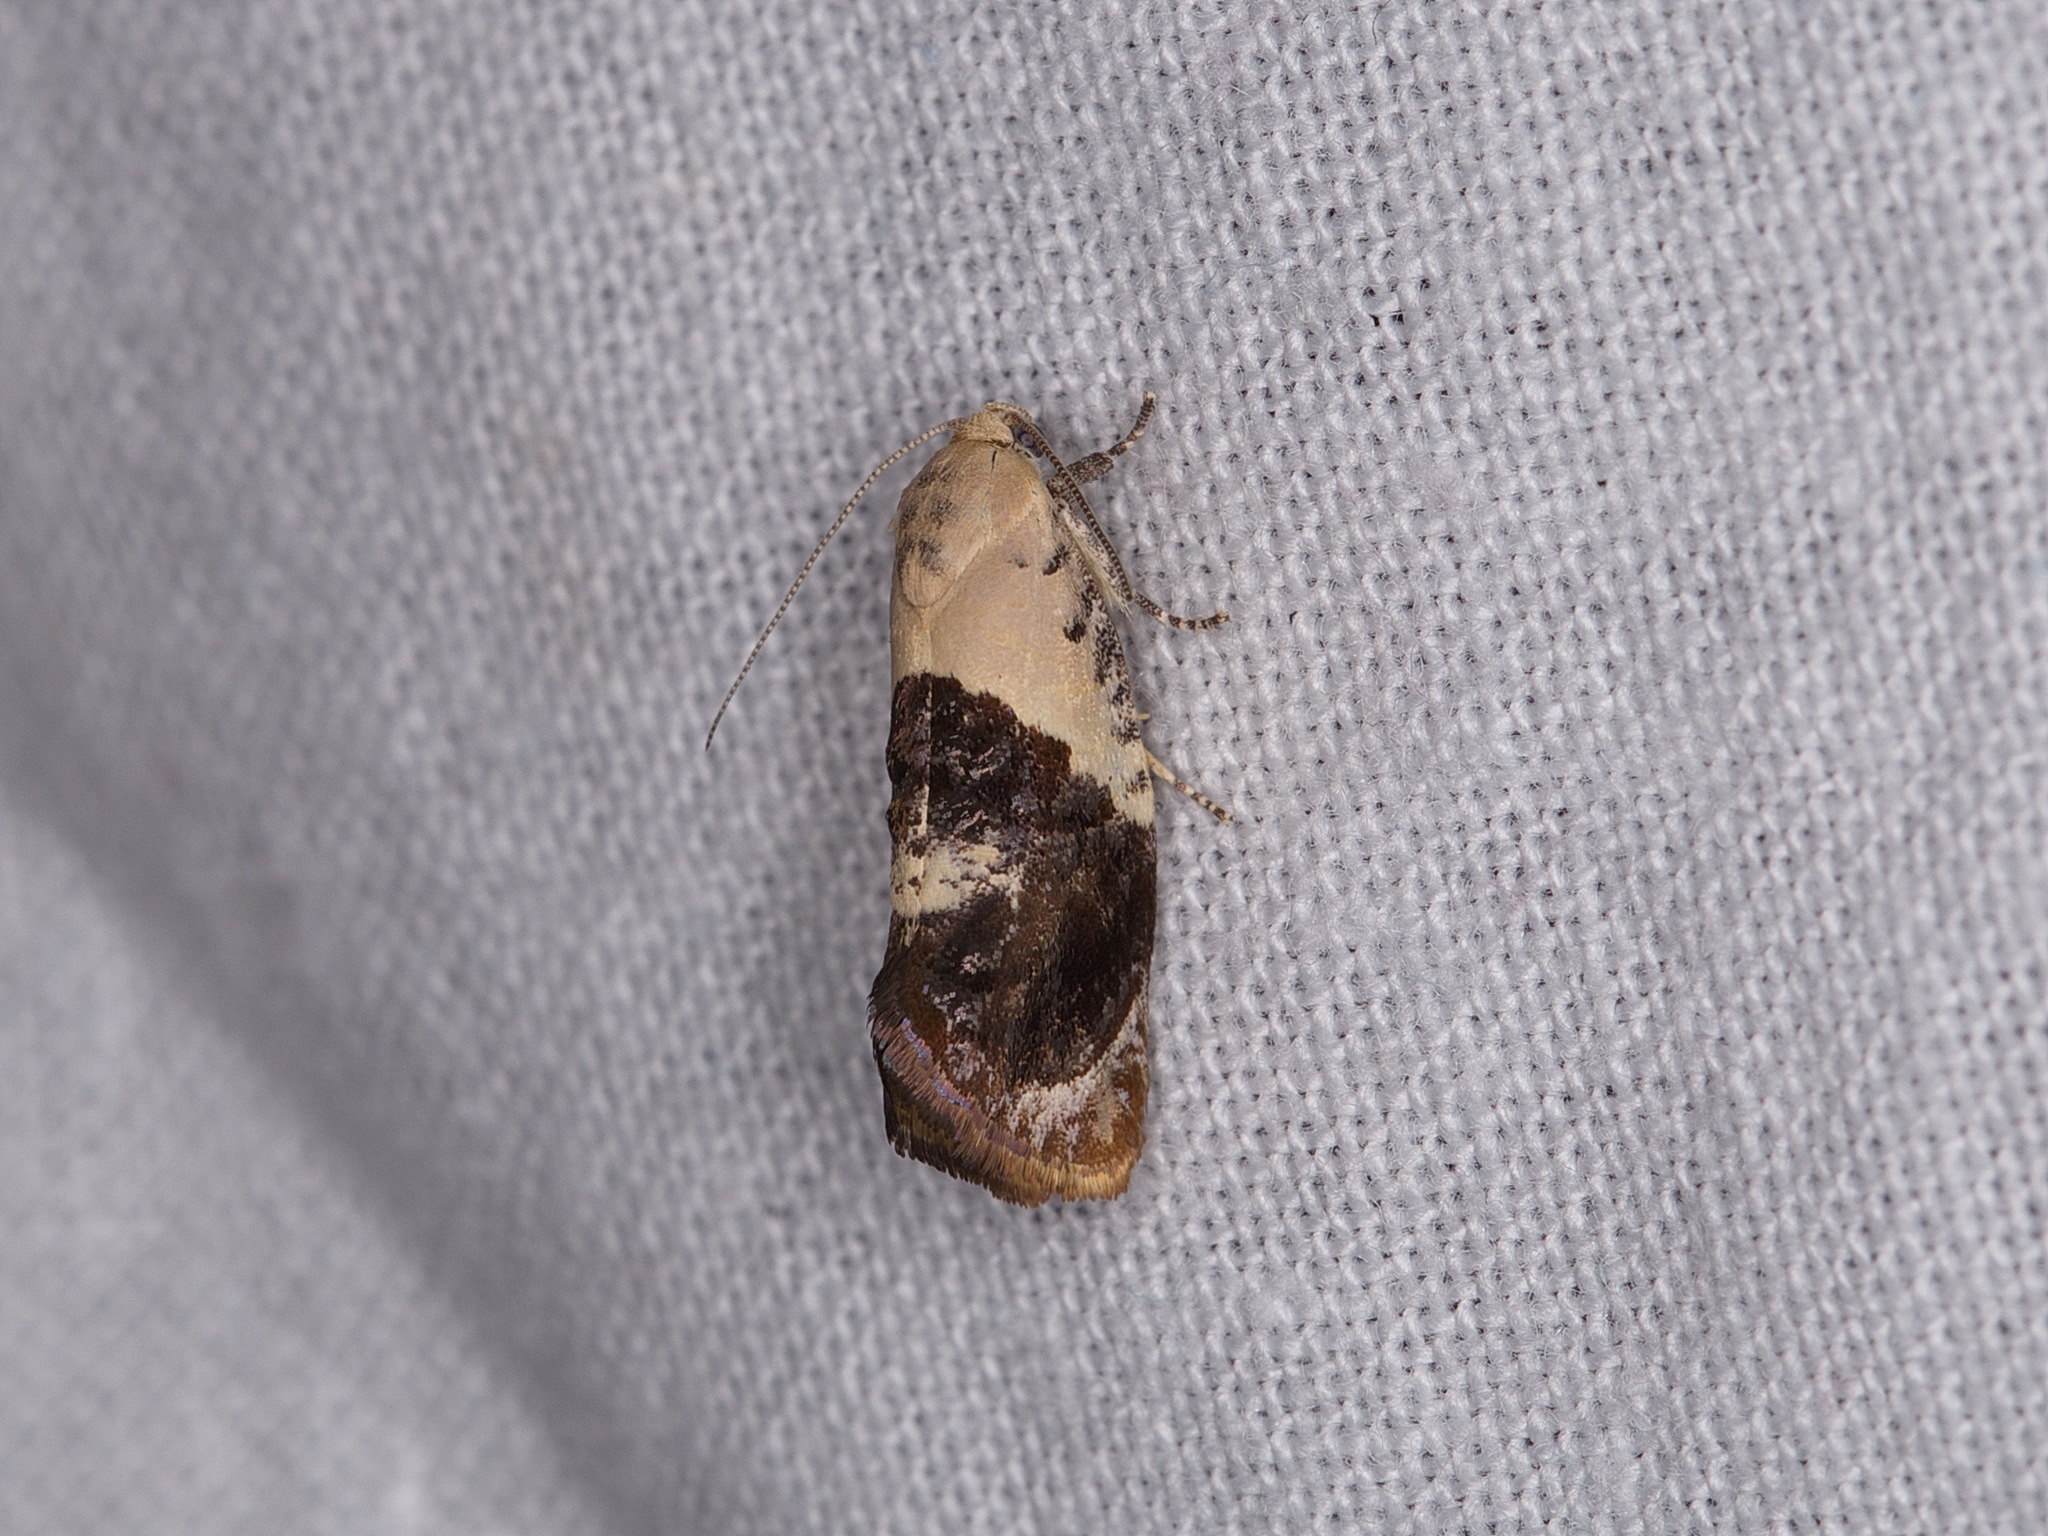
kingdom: Animalia
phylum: Arthropoda
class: Insecta
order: Lepidoptera
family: Depressariidae
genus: Hypertropha
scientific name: Hypertropha chlaenota
